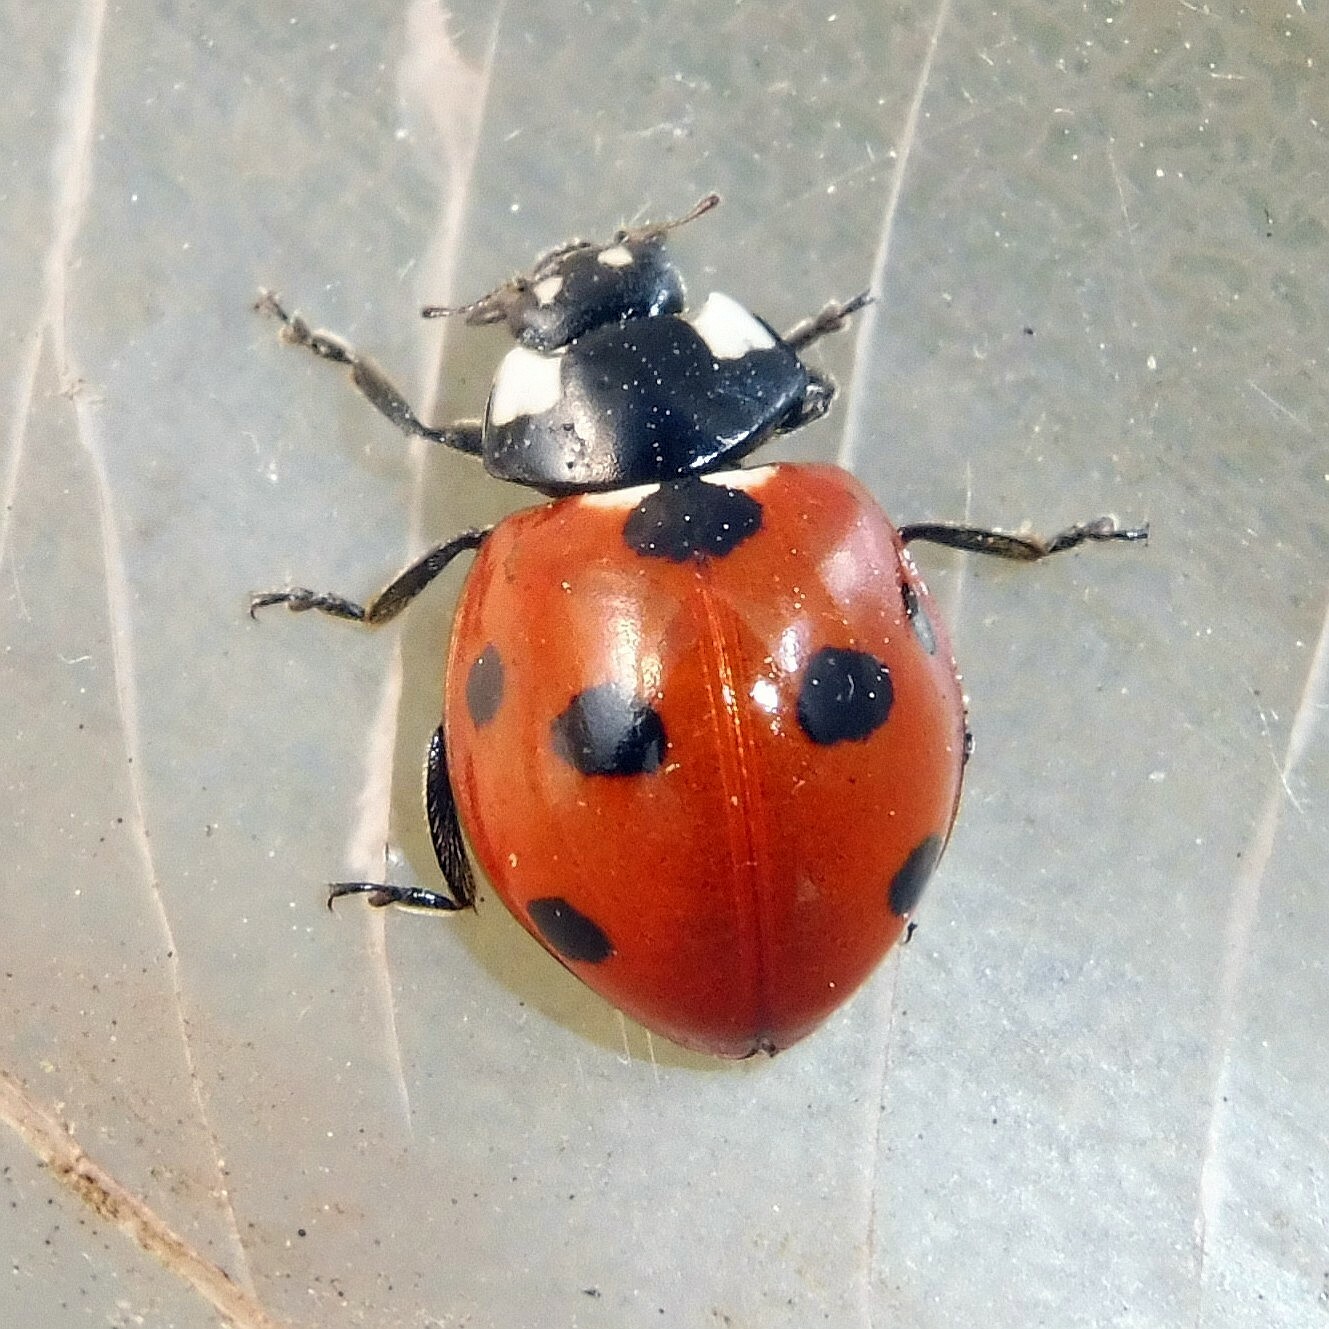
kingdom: Animalia
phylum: Arthropoda
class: Insecta
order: Coleoptera
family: Coccinellidae
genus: Coccinella
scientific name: Coccinella septempunctata
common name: Sevenspotted lady beetle
